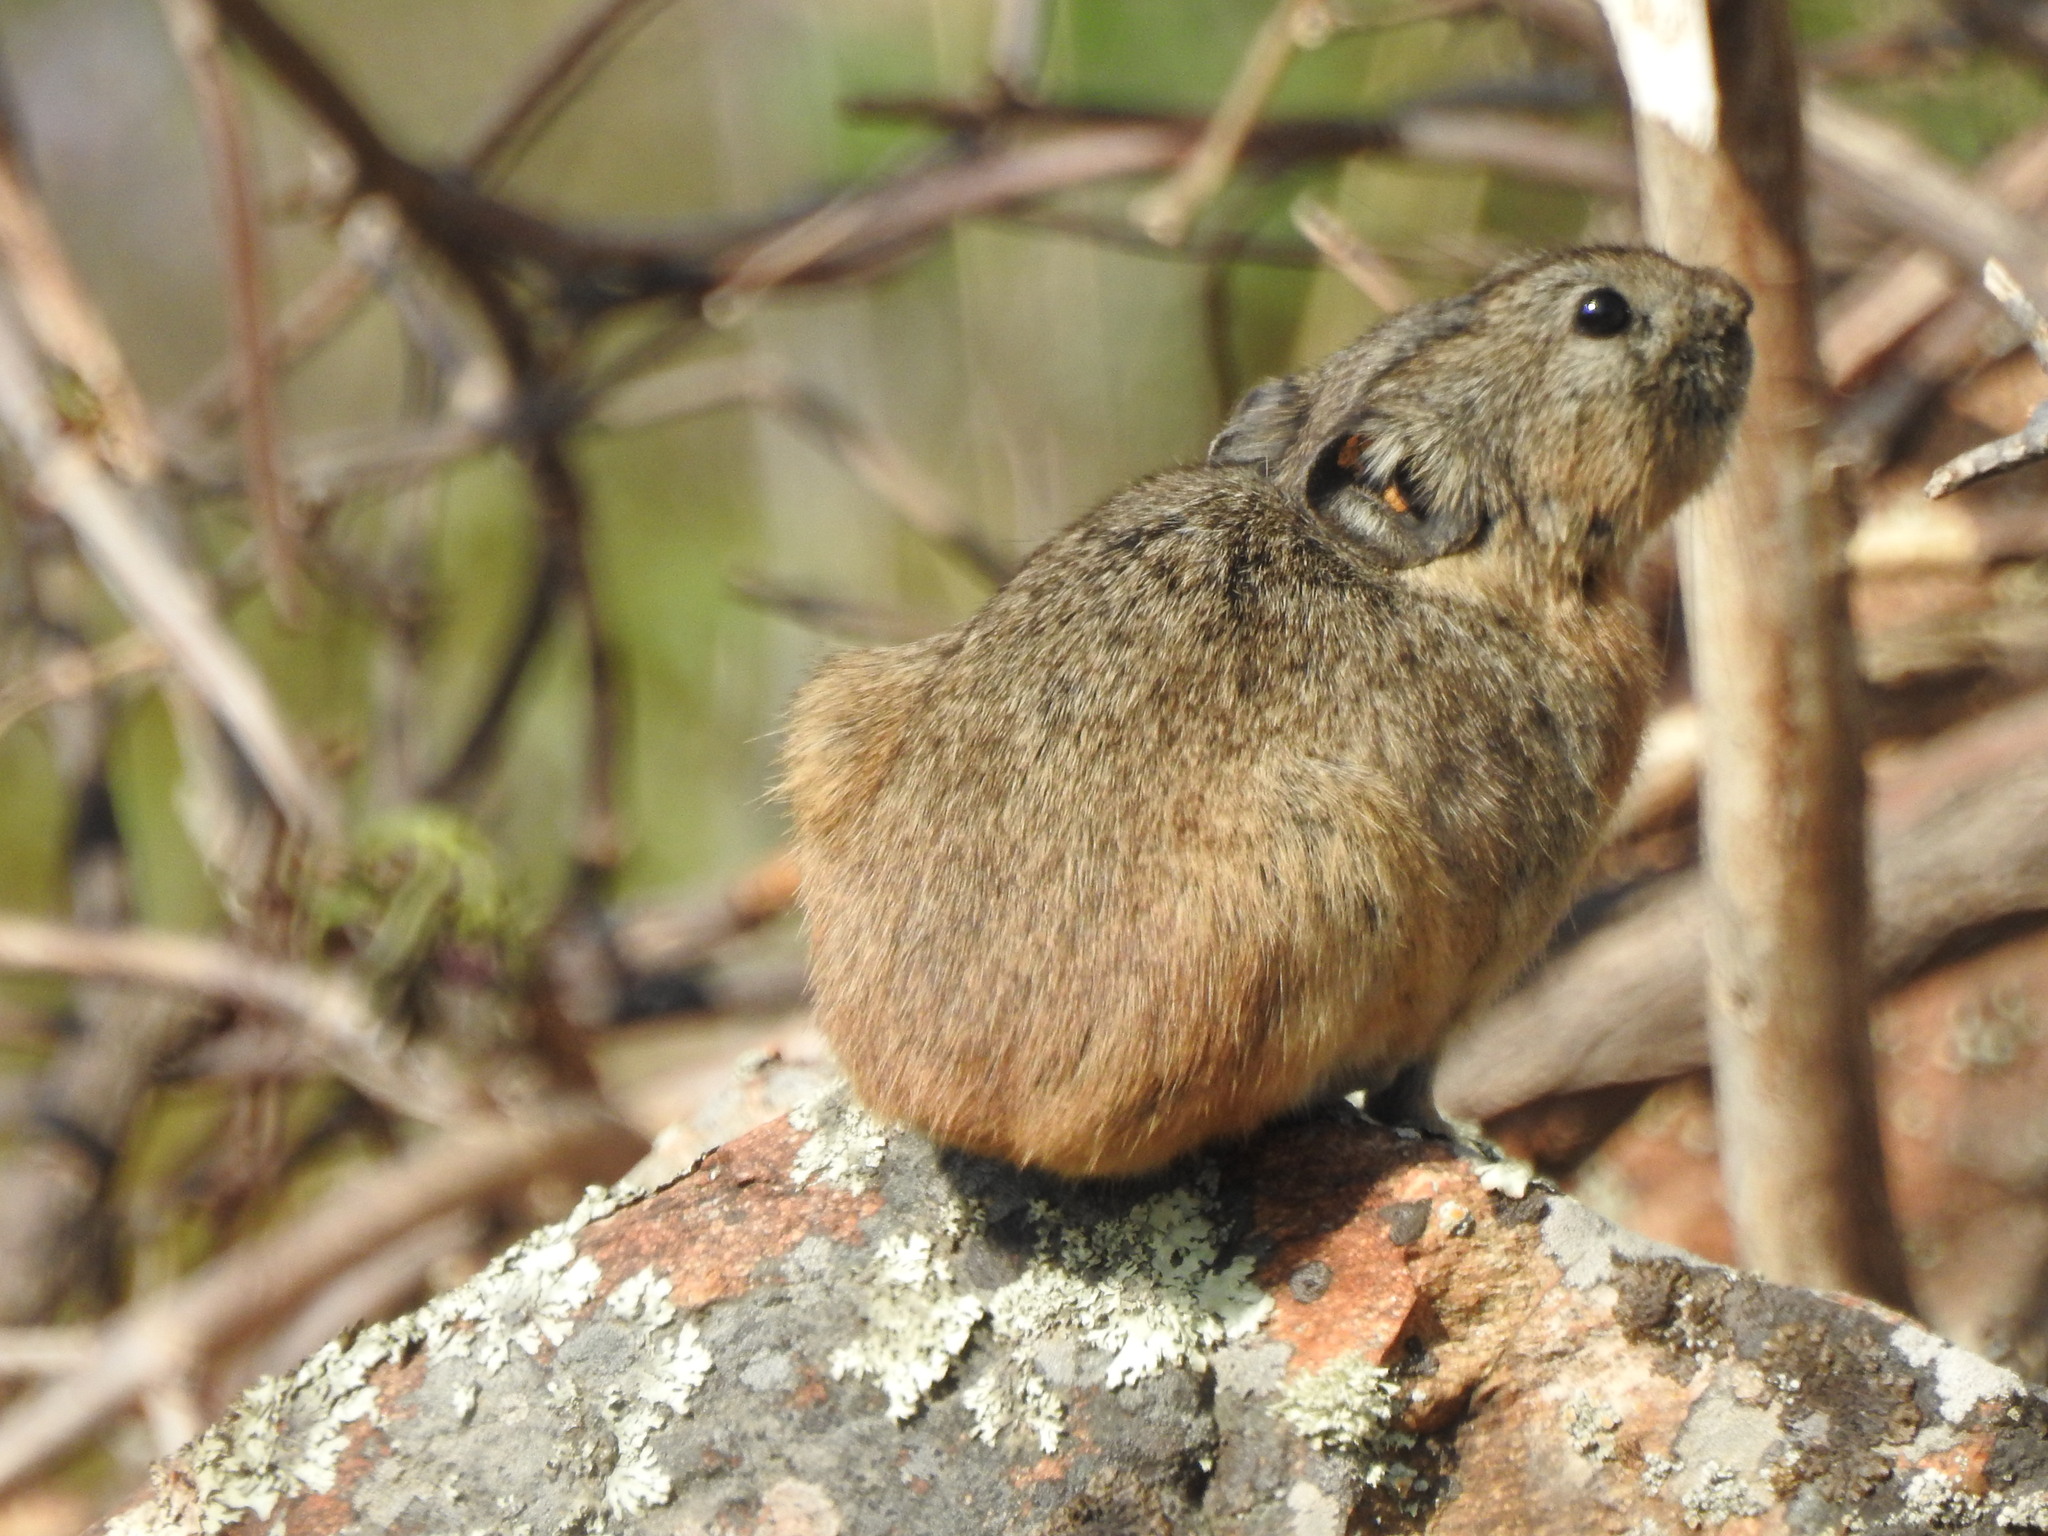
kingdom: Animalia
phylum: Chordata
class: Mammalia
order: Lagomorpha
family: Ochotonidae
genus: Ochotona
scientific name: Ochotona mantchurica
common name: Manchurian pika
